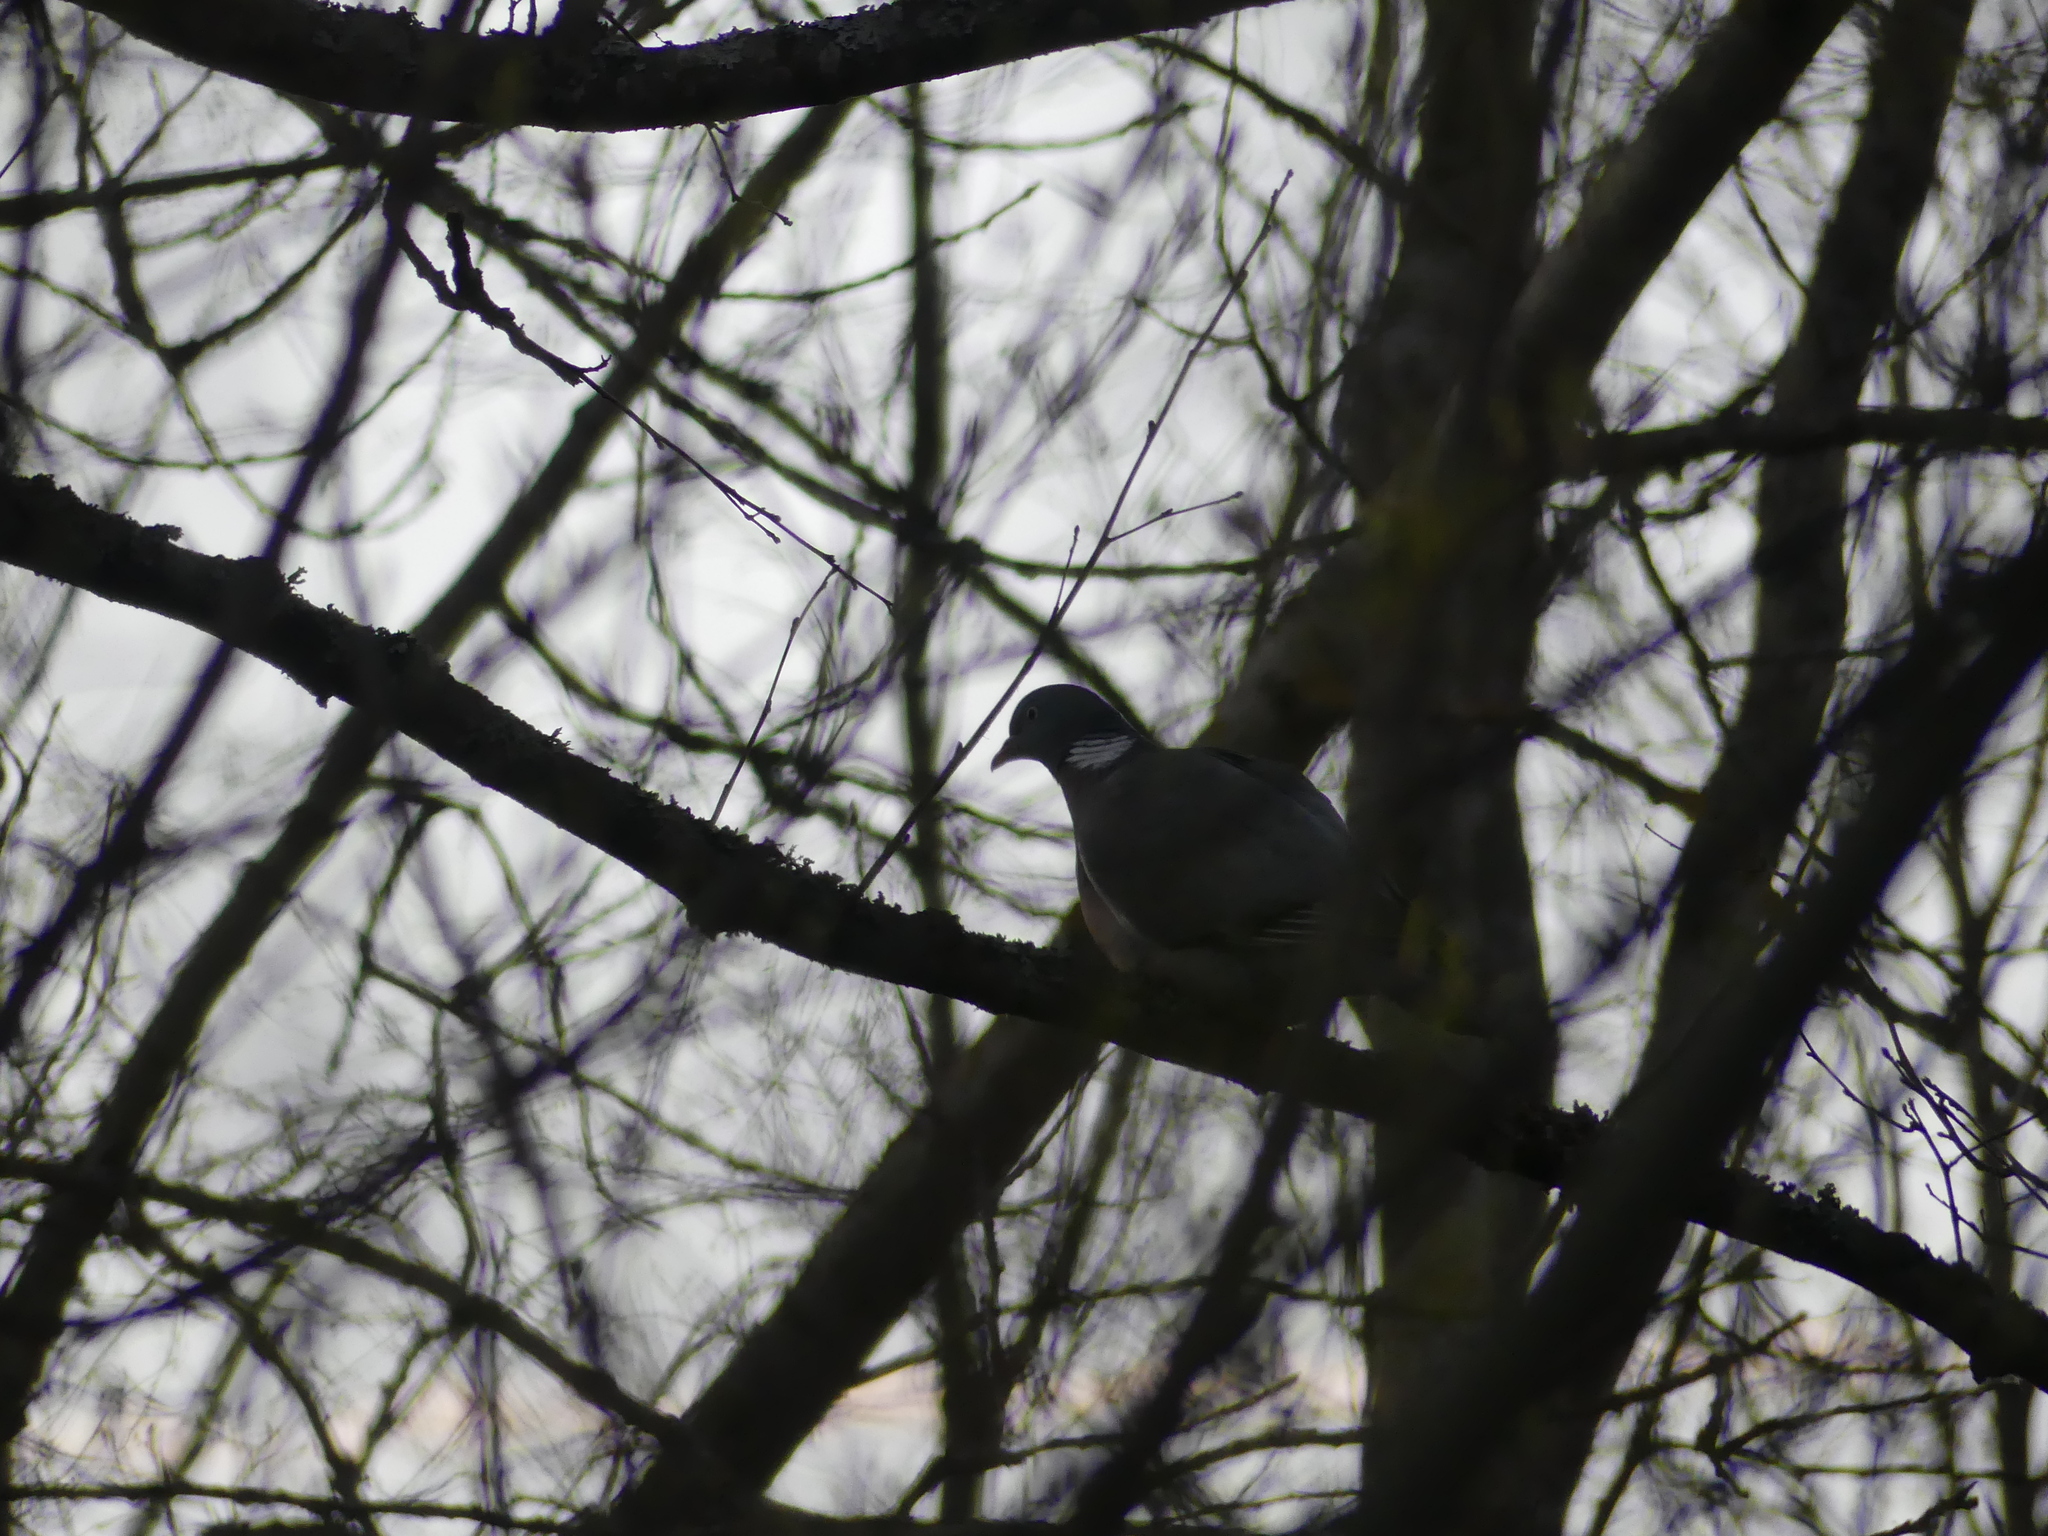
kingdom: Animalia
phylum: Chordata
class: Aves
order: Columbiformes
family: Columbidae
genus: Columba
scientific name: Columba palumbus
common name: Common wood pigeon
